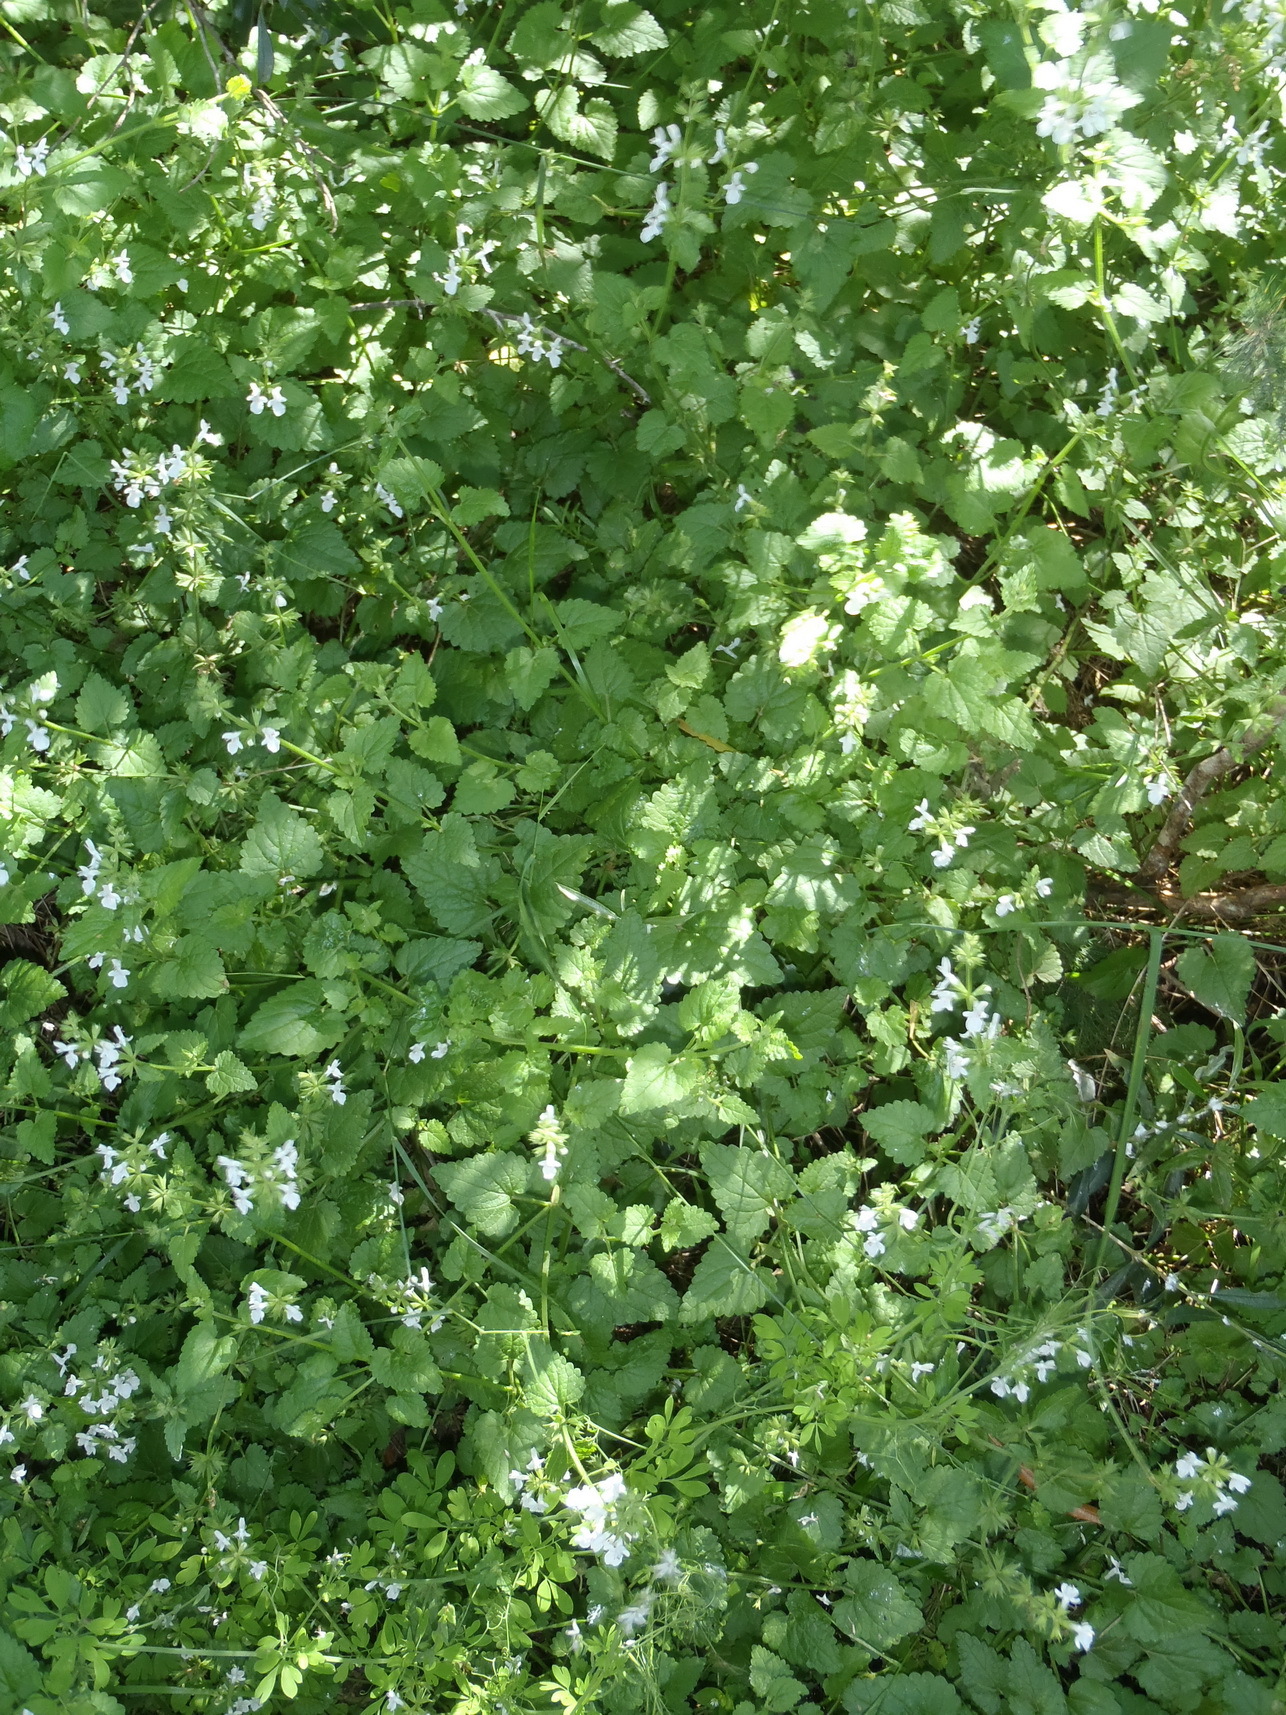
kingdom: Plantae
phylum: Tracheophyta
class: Magnoliopsida
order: Lamiales
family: Lamiaceae
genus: Stachys
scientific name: Stachys aethiopica
